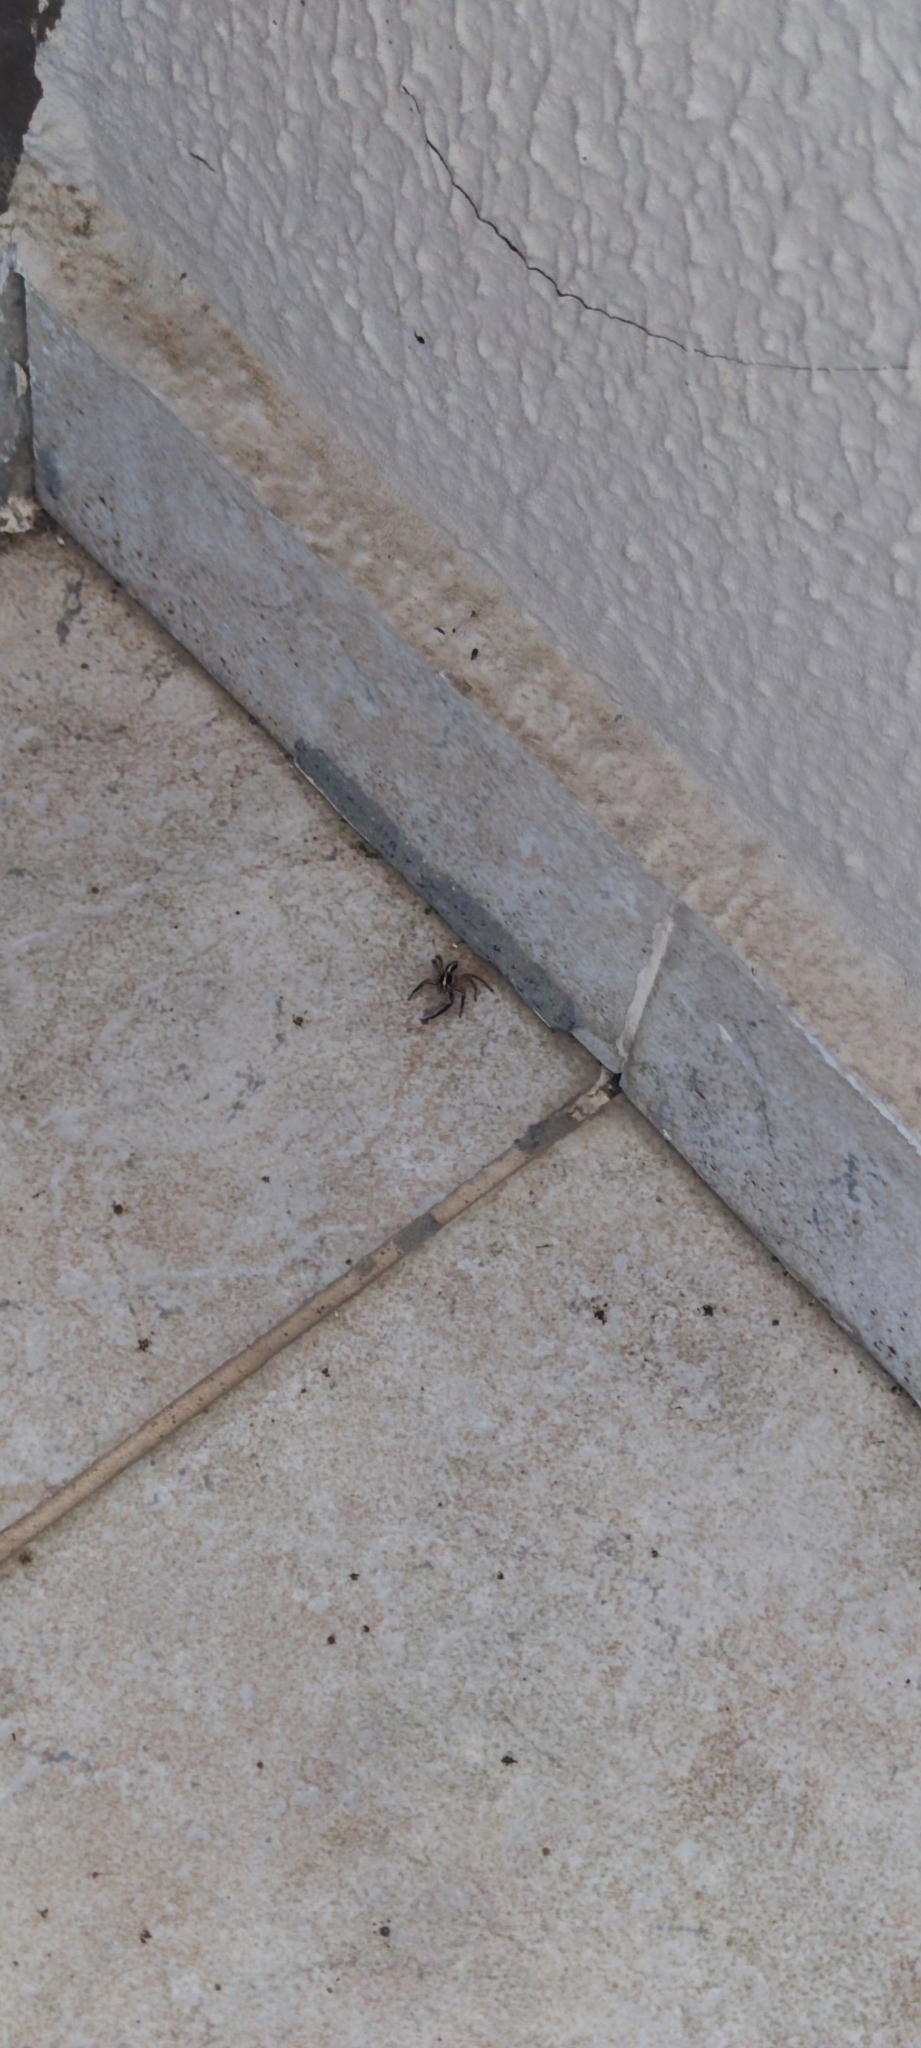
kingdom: Animalia
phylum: Arthropoda
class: Arachnida
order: Araneae
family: Salticidae
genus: Plexippus
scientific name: Plexippus paykulli
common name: Pantropical jumper
